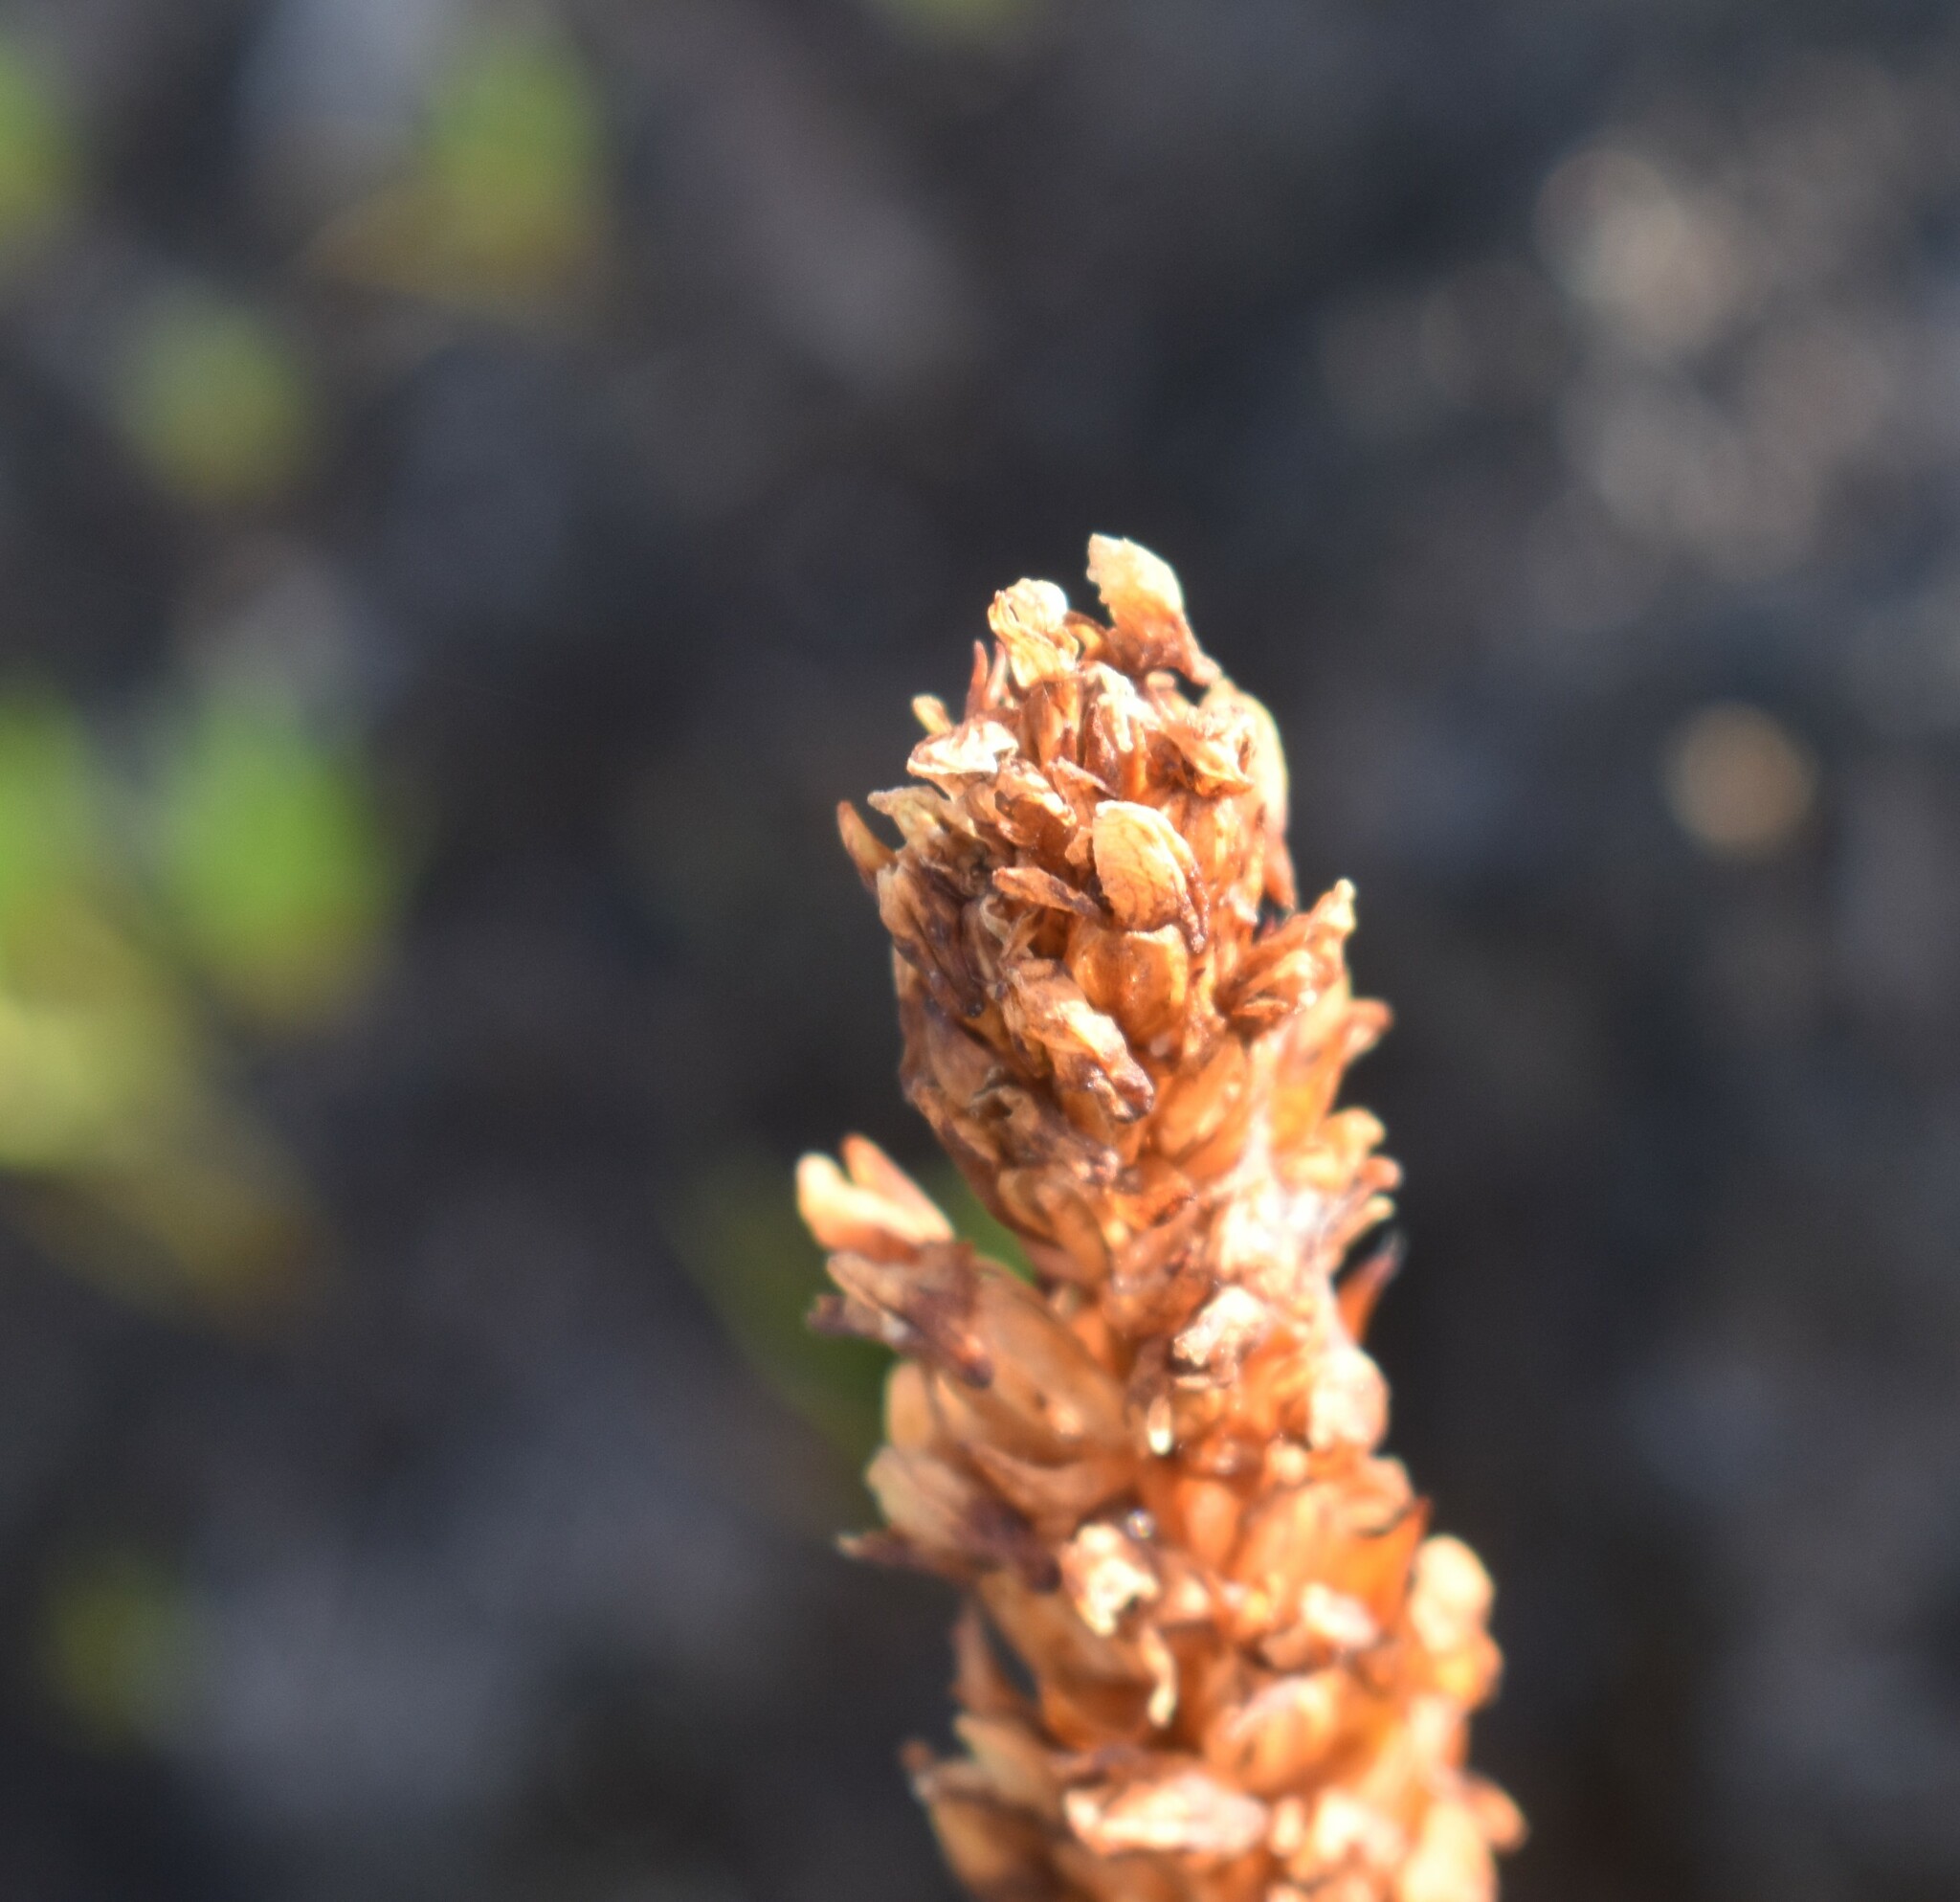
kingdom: Plantae
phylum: Tracheophyta
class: Liliopsida
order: Asparagales
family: Orchidaceae
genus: Disa
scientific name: Disa obtusa
